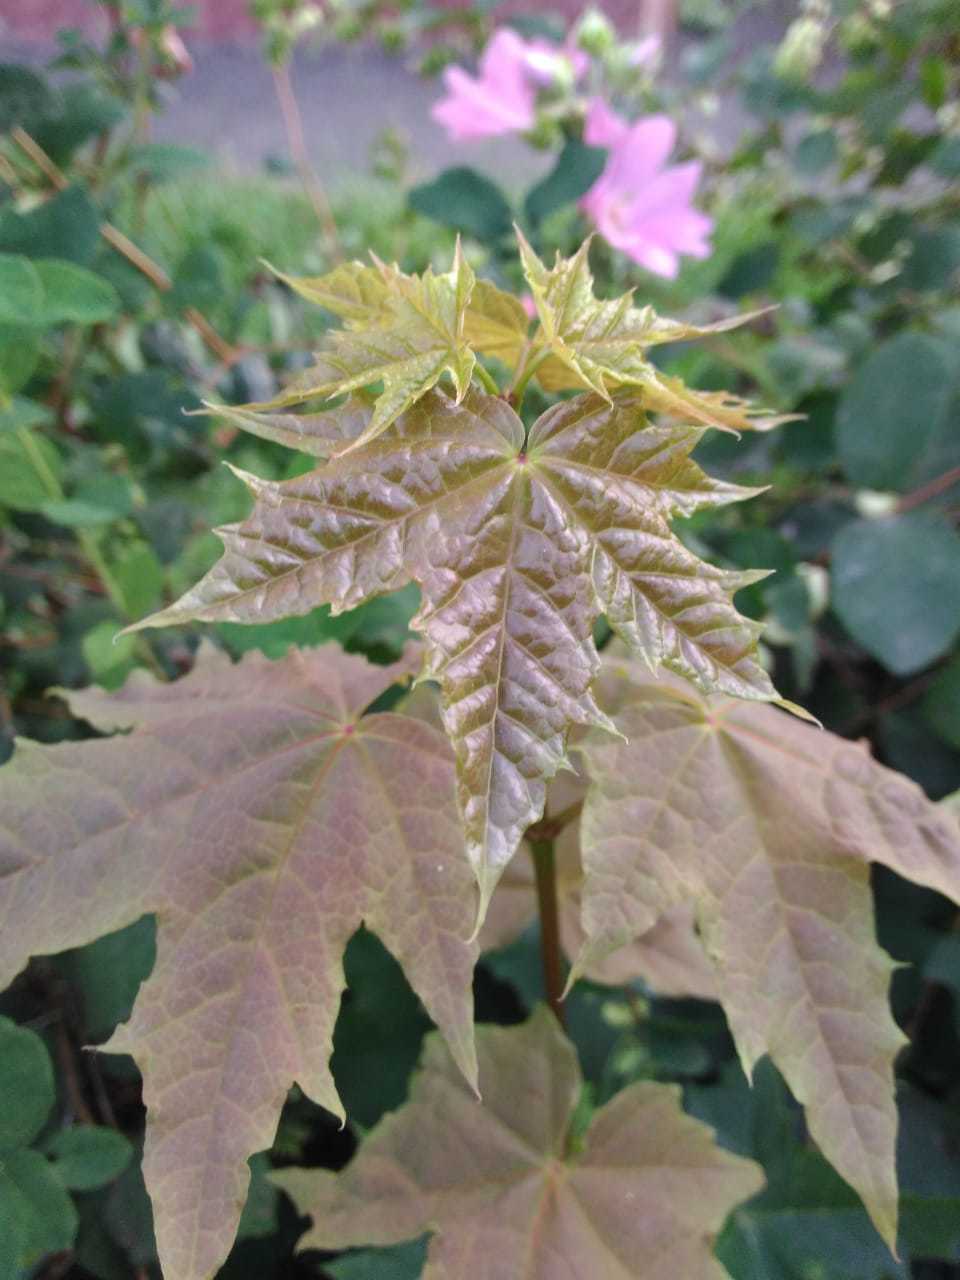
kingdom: Plantae
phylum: Tracheophyta
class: Magnoliopsida
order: Sapindales
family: Sapindaceae
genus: Acer
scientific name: Acer platanoides
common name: Norway maple
